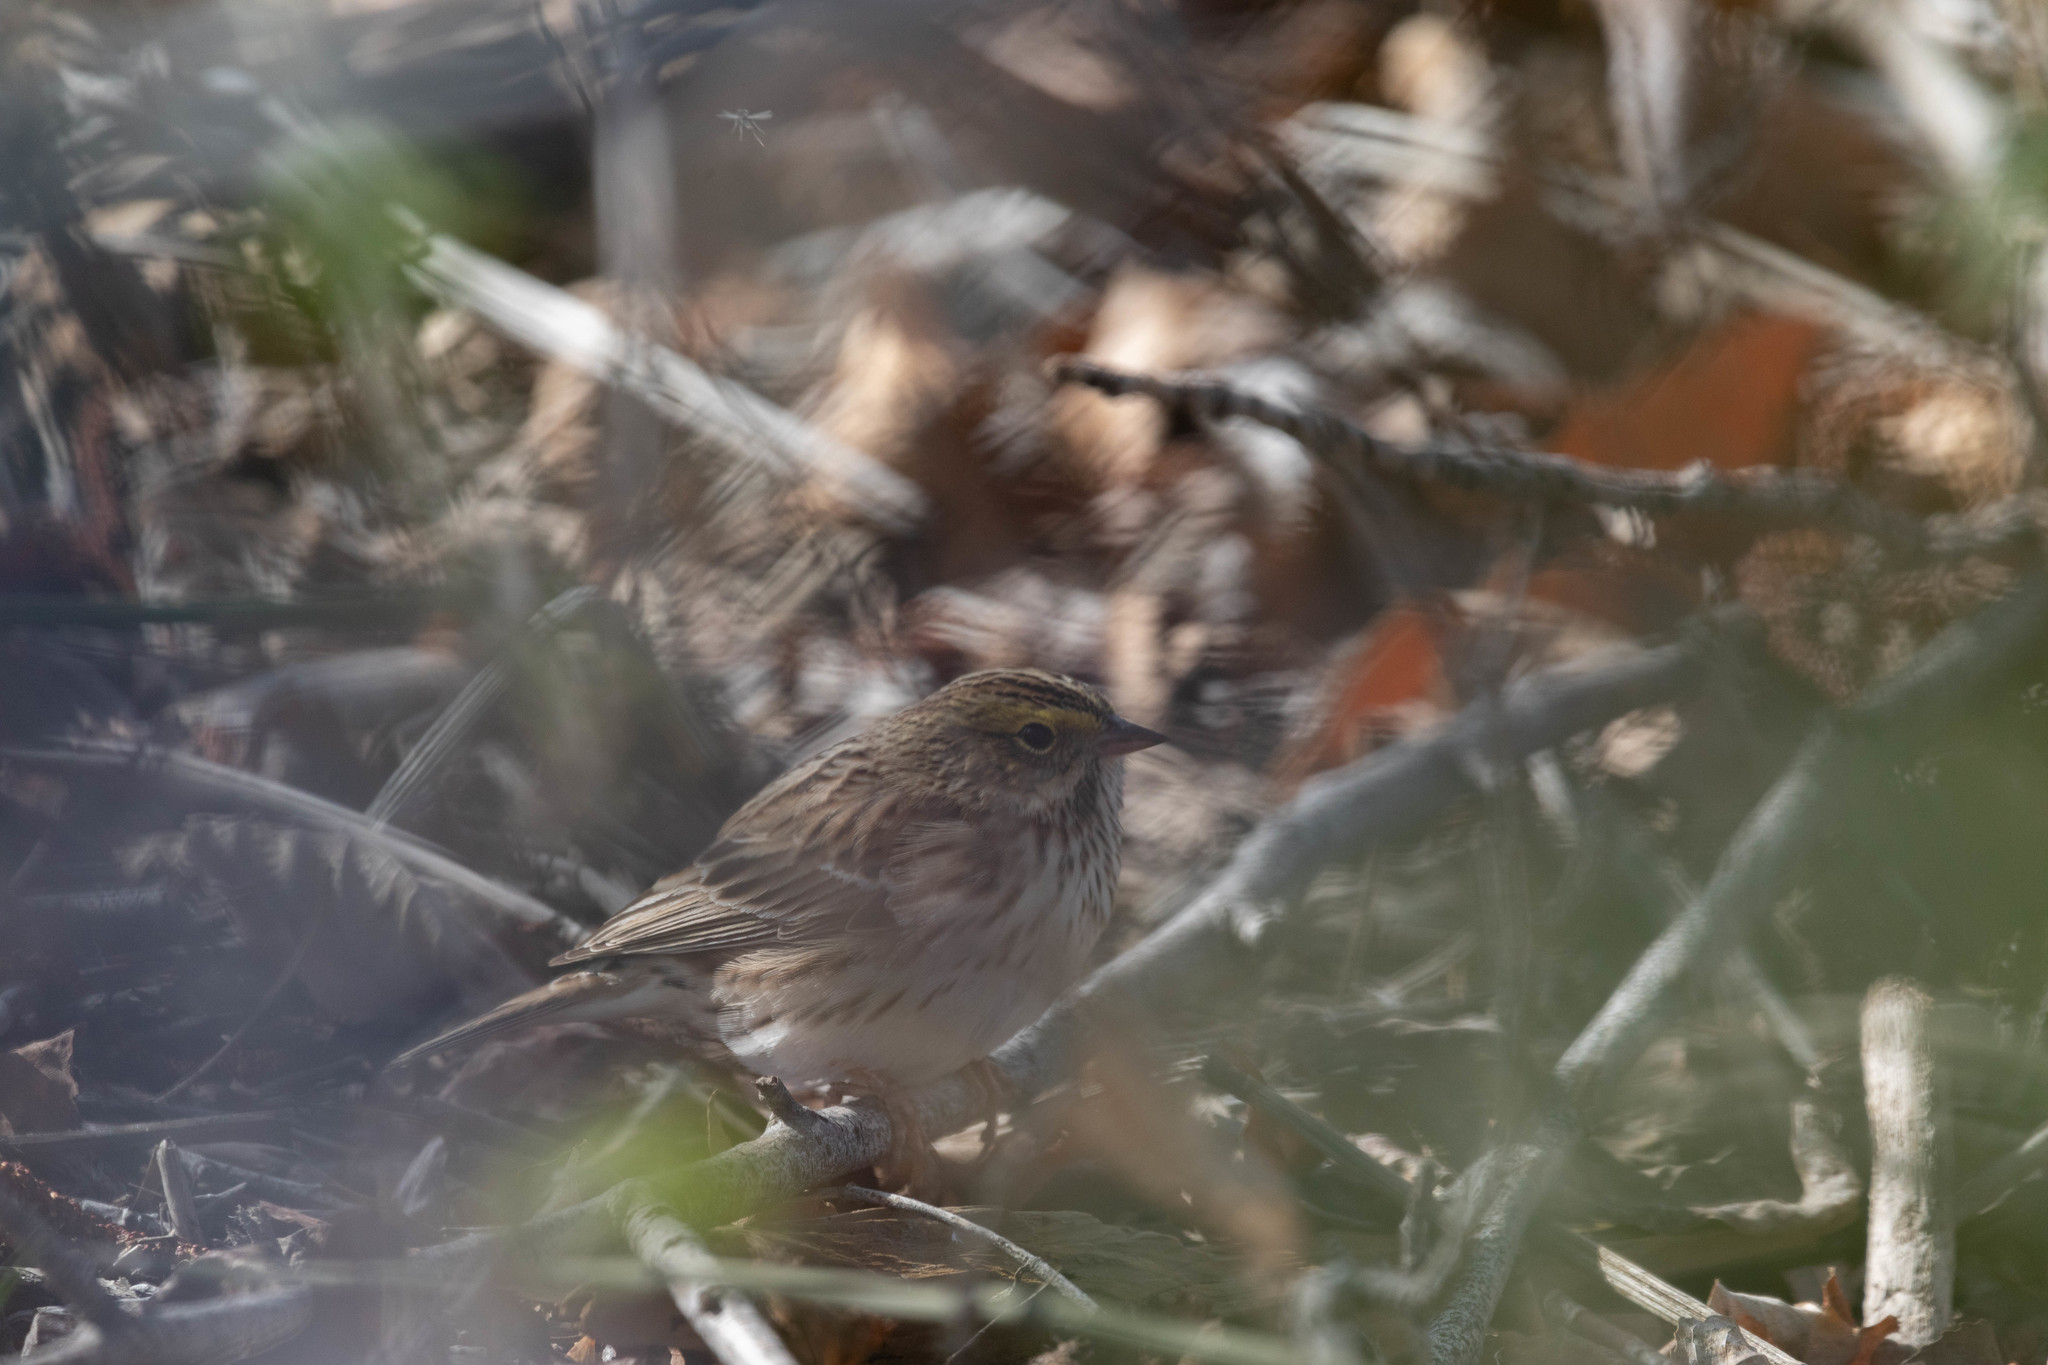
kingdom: Animalia
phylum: Chordata
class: Aves
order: Passeriformes
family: Passerellidae
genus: Passerculus
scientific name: Passerculus sandwichensis
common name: Savannah sparrow
